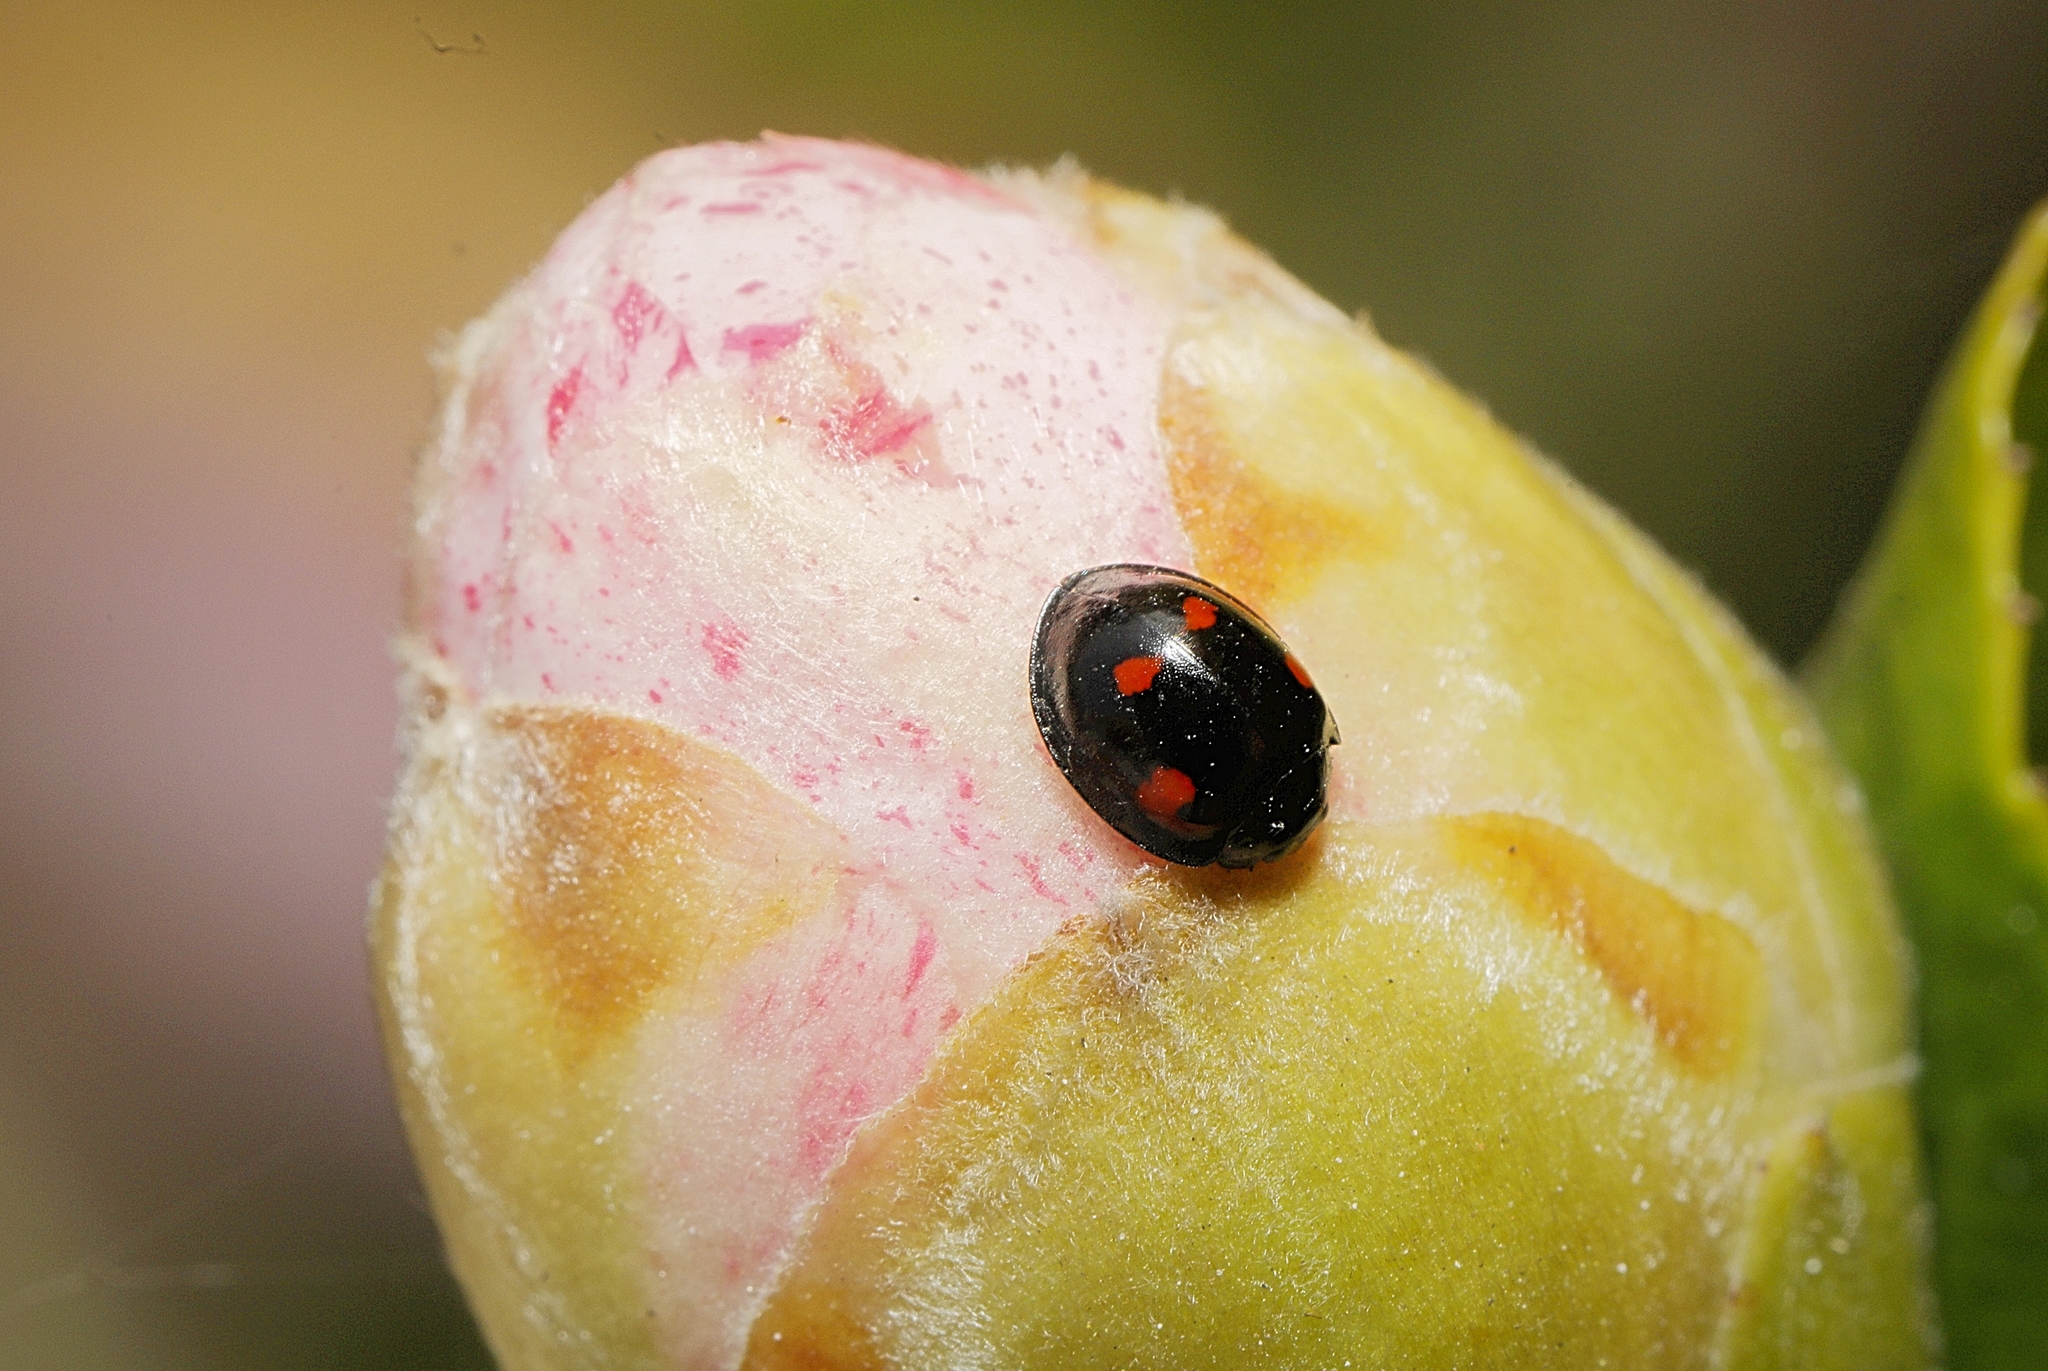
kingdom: Animalia
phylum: Arthropoda
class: Insecta
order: Coleoptera
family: Coccinellidae
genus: Brumus
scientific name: Brumus quadripustulatus
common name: Ladybird beetle
